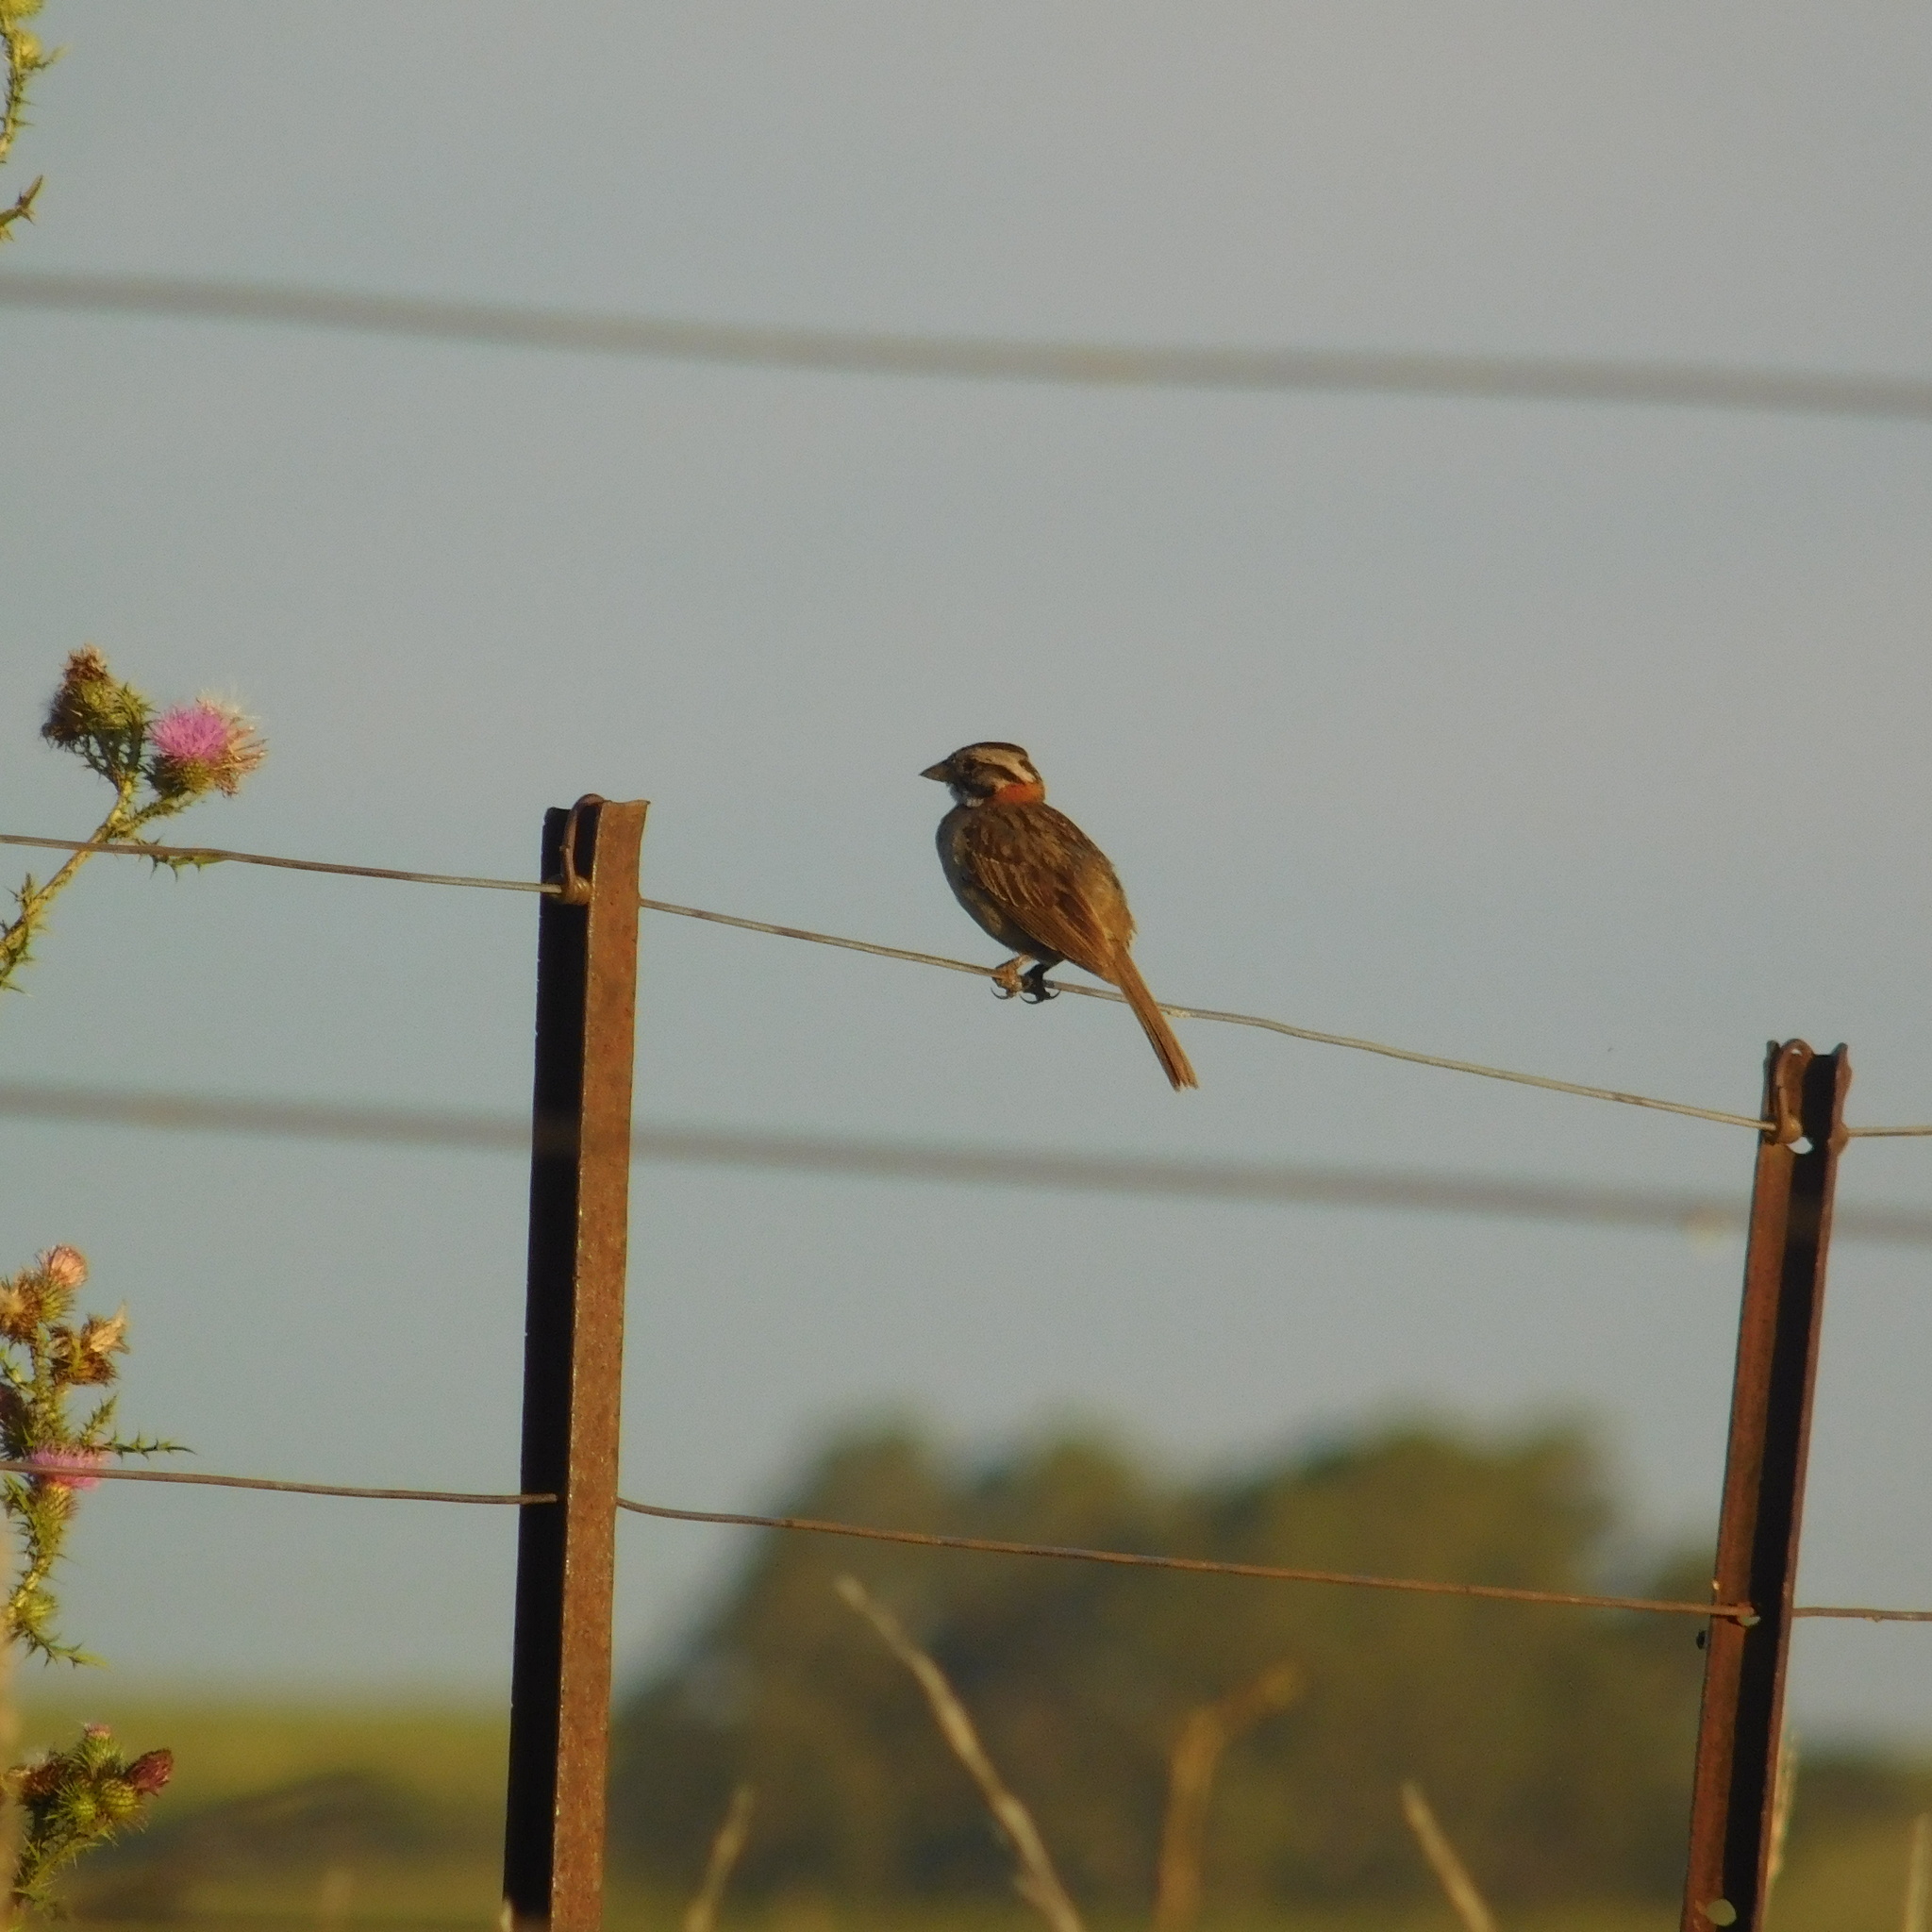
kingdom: Animalia
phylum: Chordata
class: Aves
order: Passeriformes
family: Passerellidae
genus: Zonotrichia
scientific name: Zonotrichia capensis
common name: Rufous-collared sparrow
